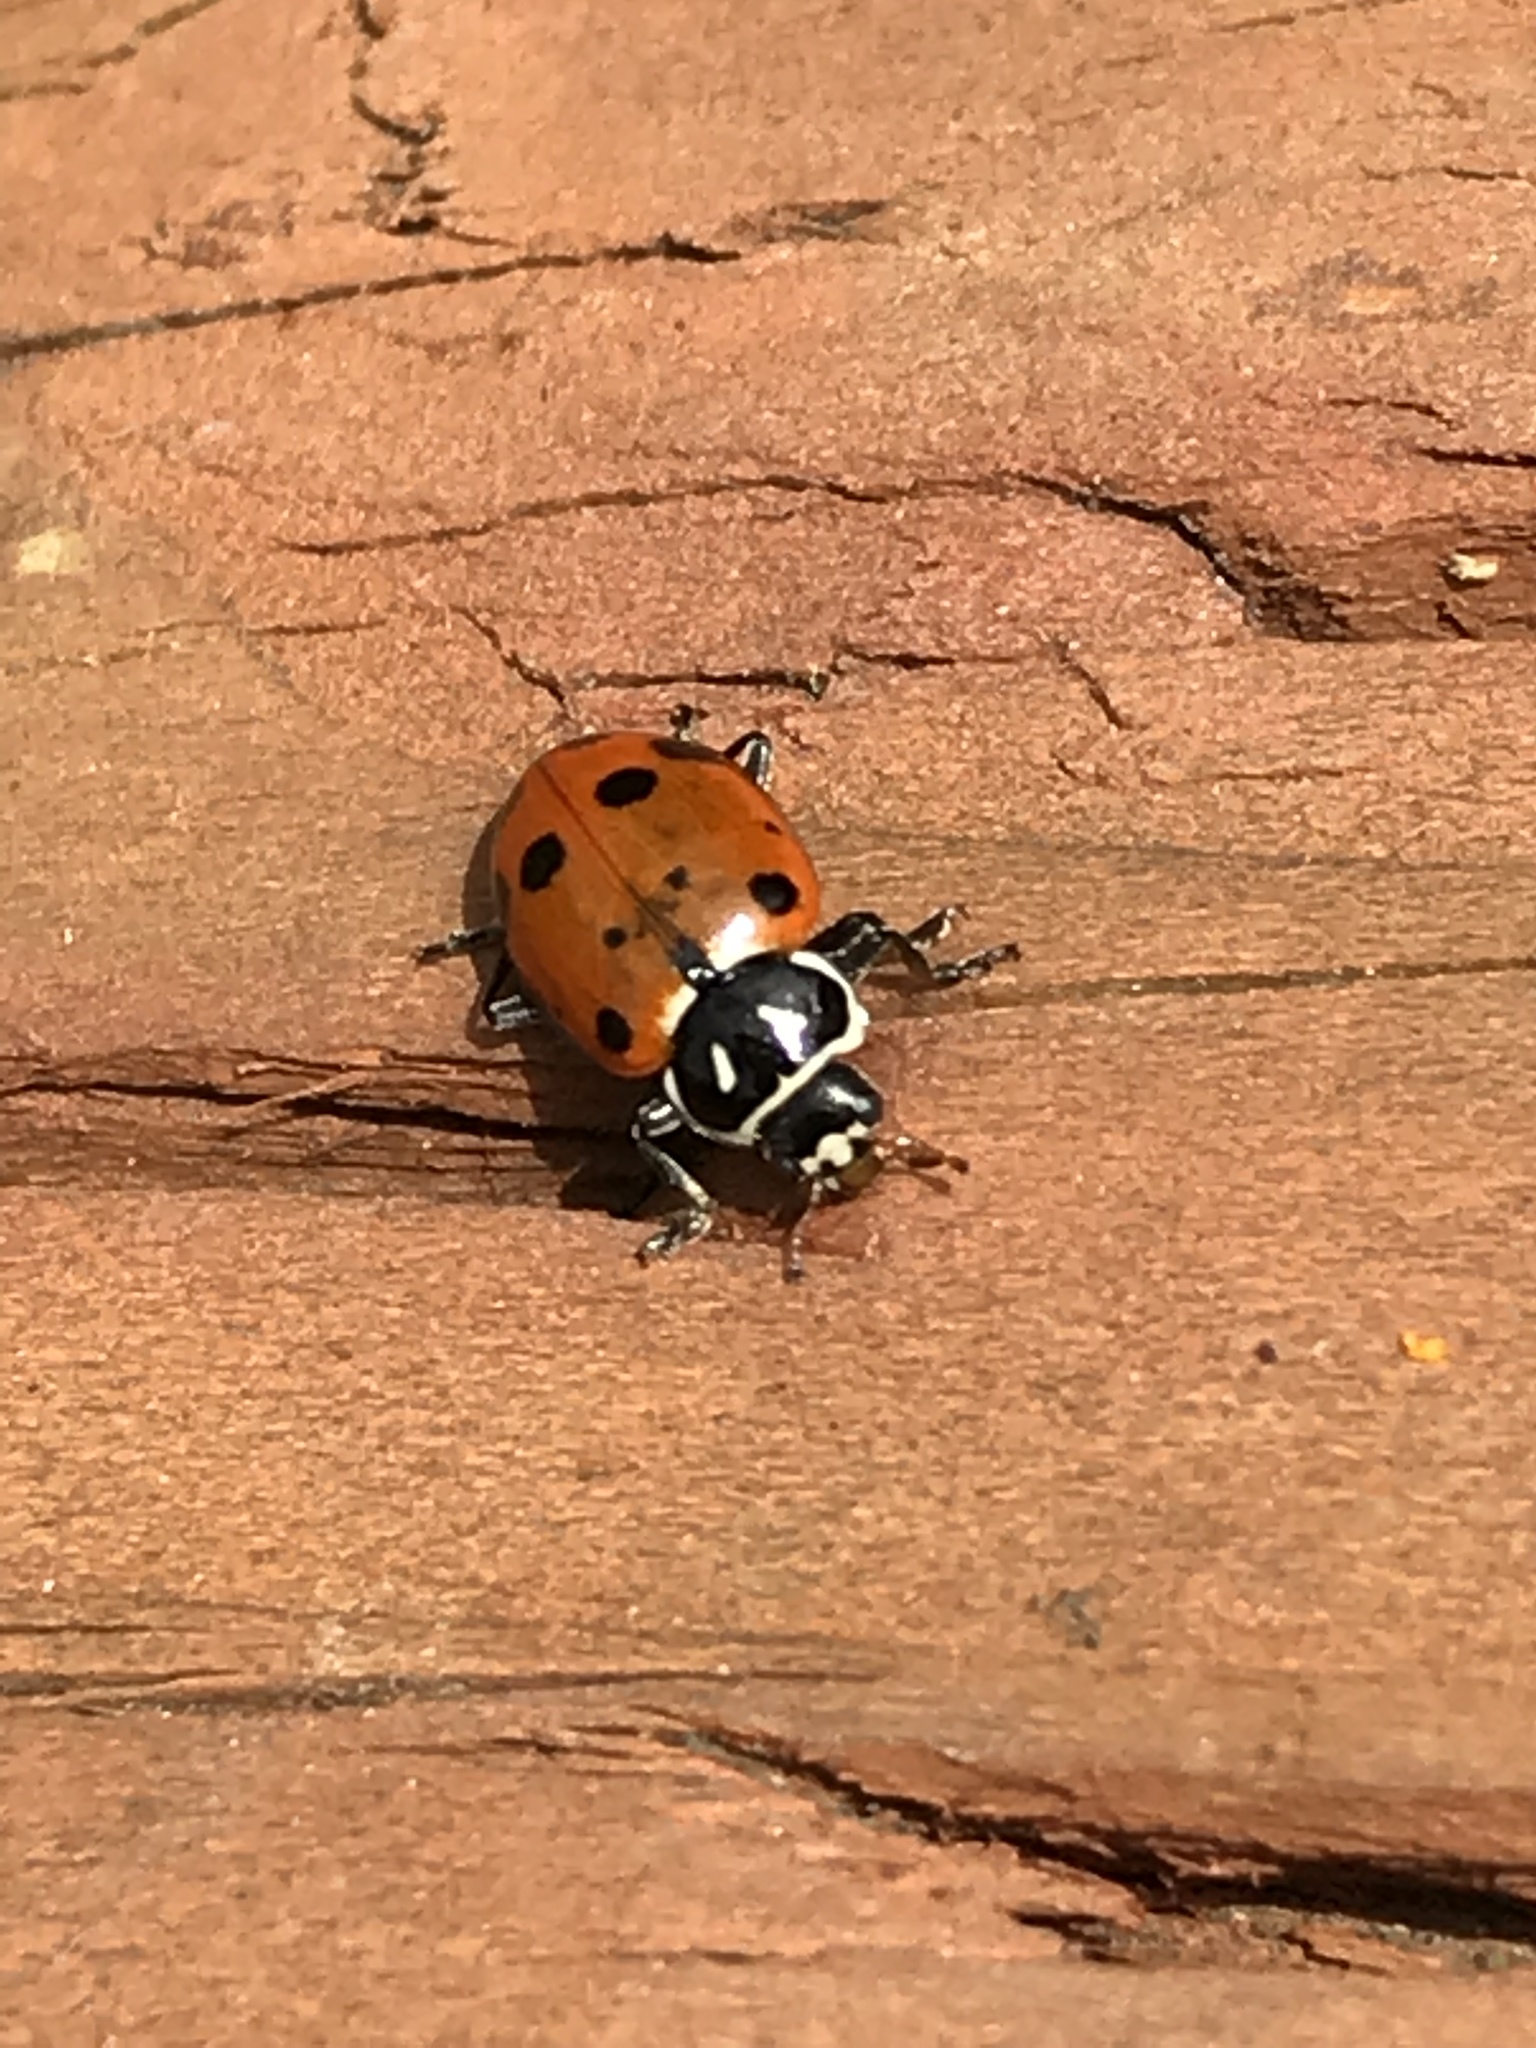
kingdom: Animalia
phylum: Arthropoda
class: Insecta
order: Coleoptera
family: Coccinellidae
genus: Hippodamia
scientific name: Hippodamia convergens
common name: Convergent lady beetle
